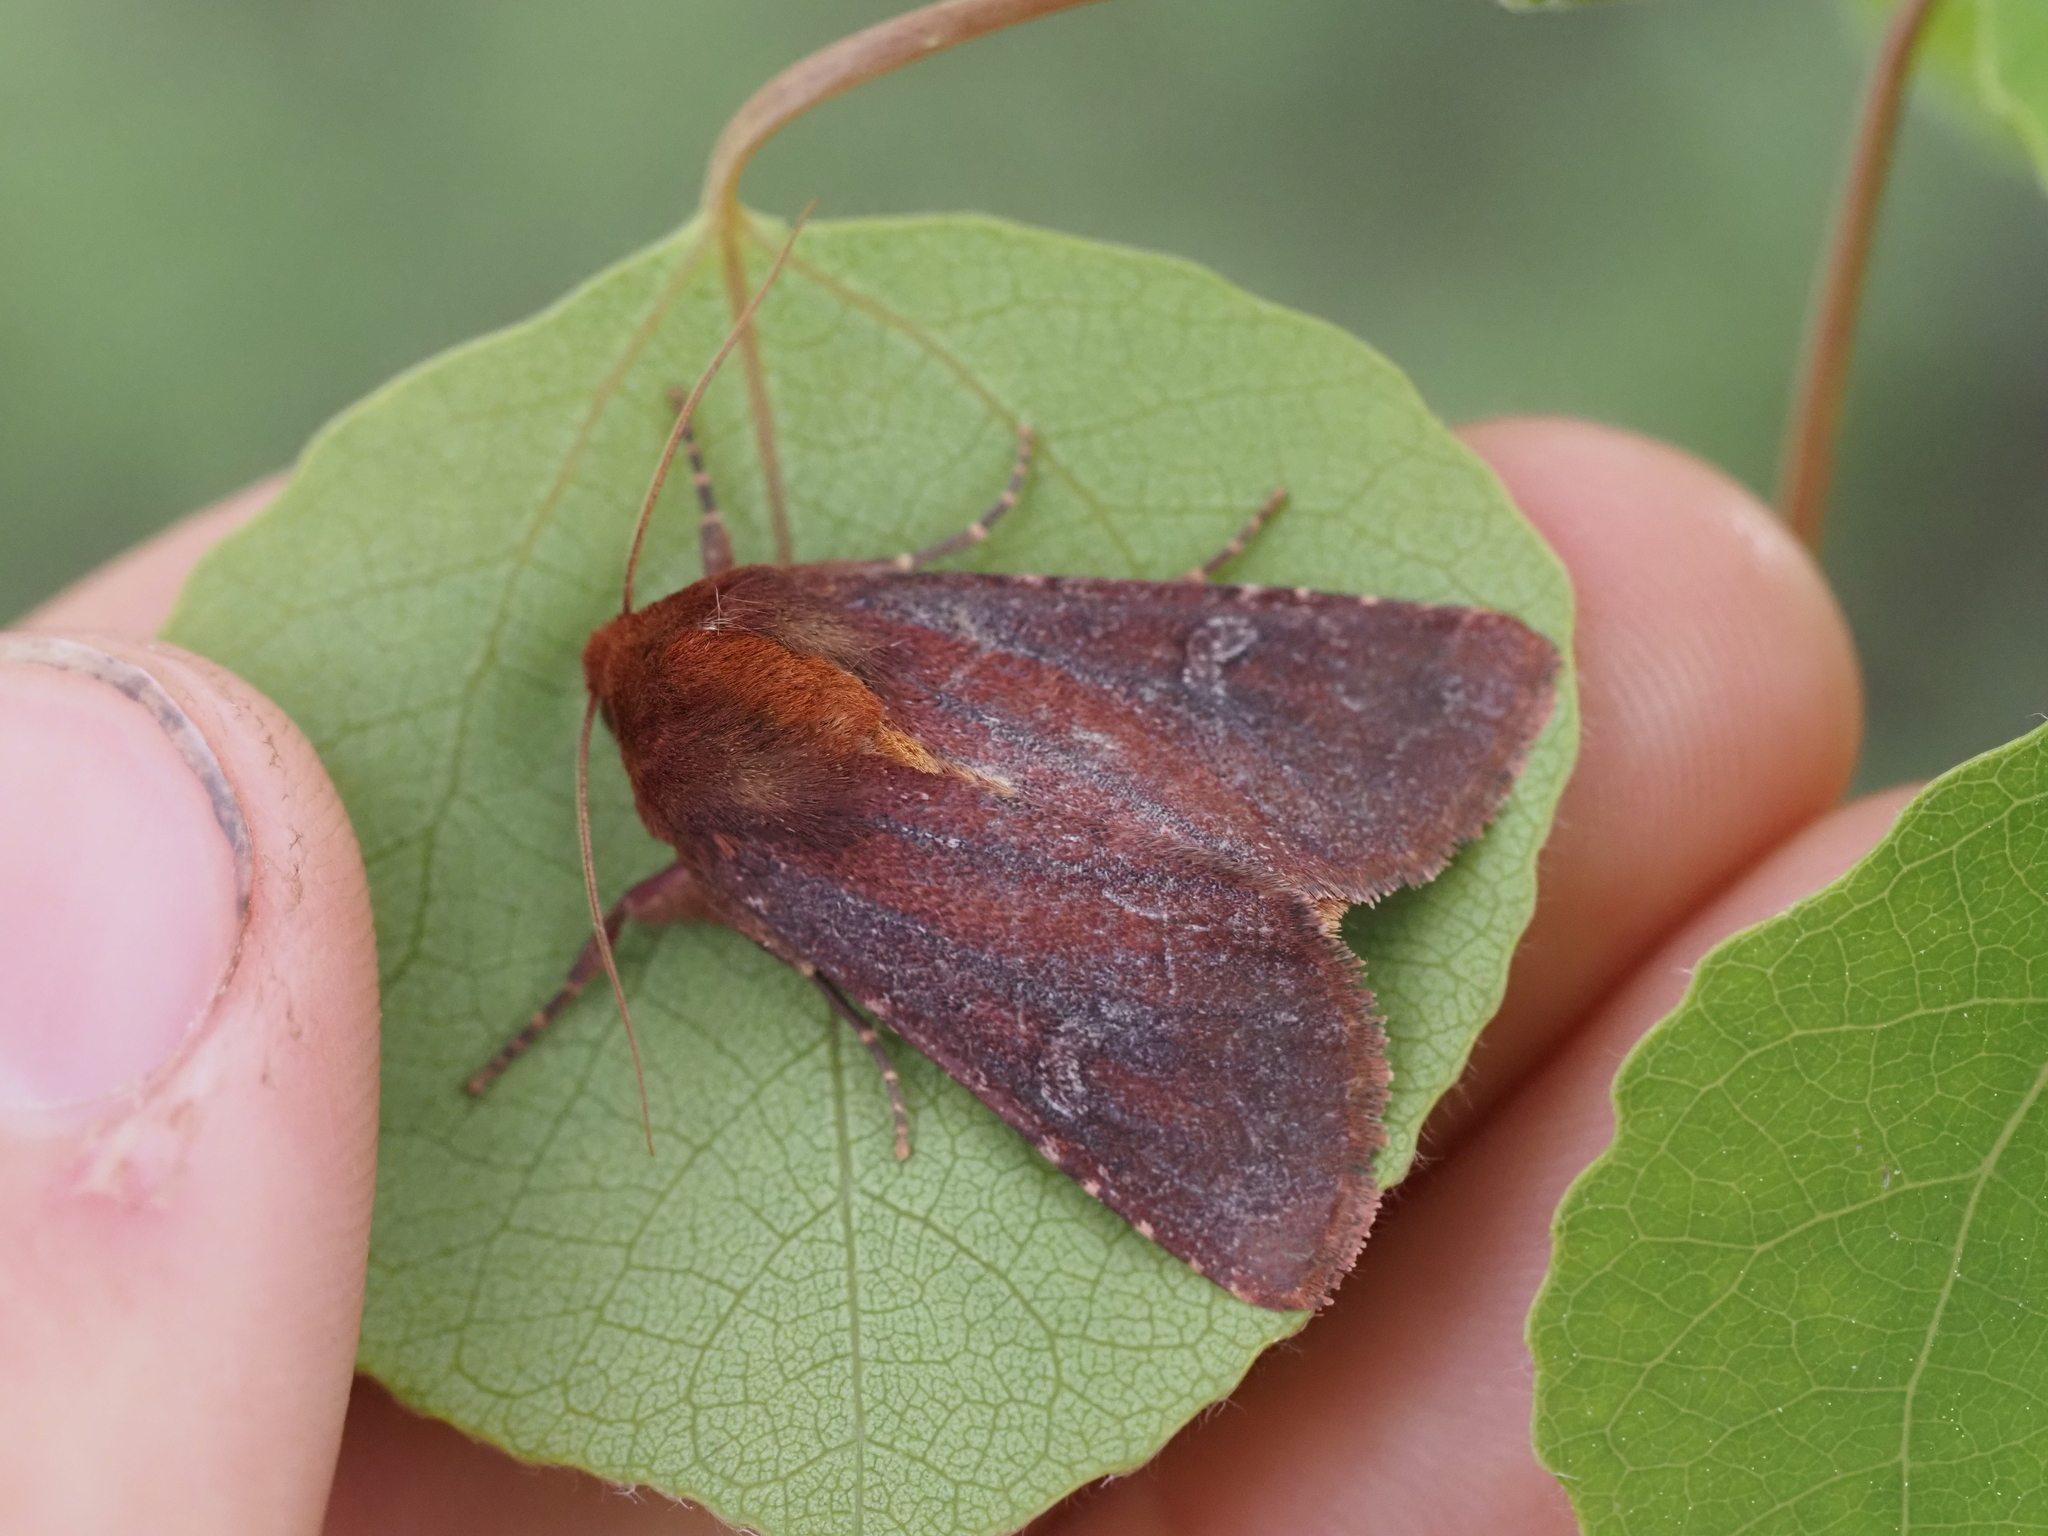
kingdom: Animalia
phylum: Arthropoda
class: Insecta
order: Lepidoptera
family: Noctuidae
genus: Sideridis
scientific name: Sideridis maryx
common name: Maroonwing moth
